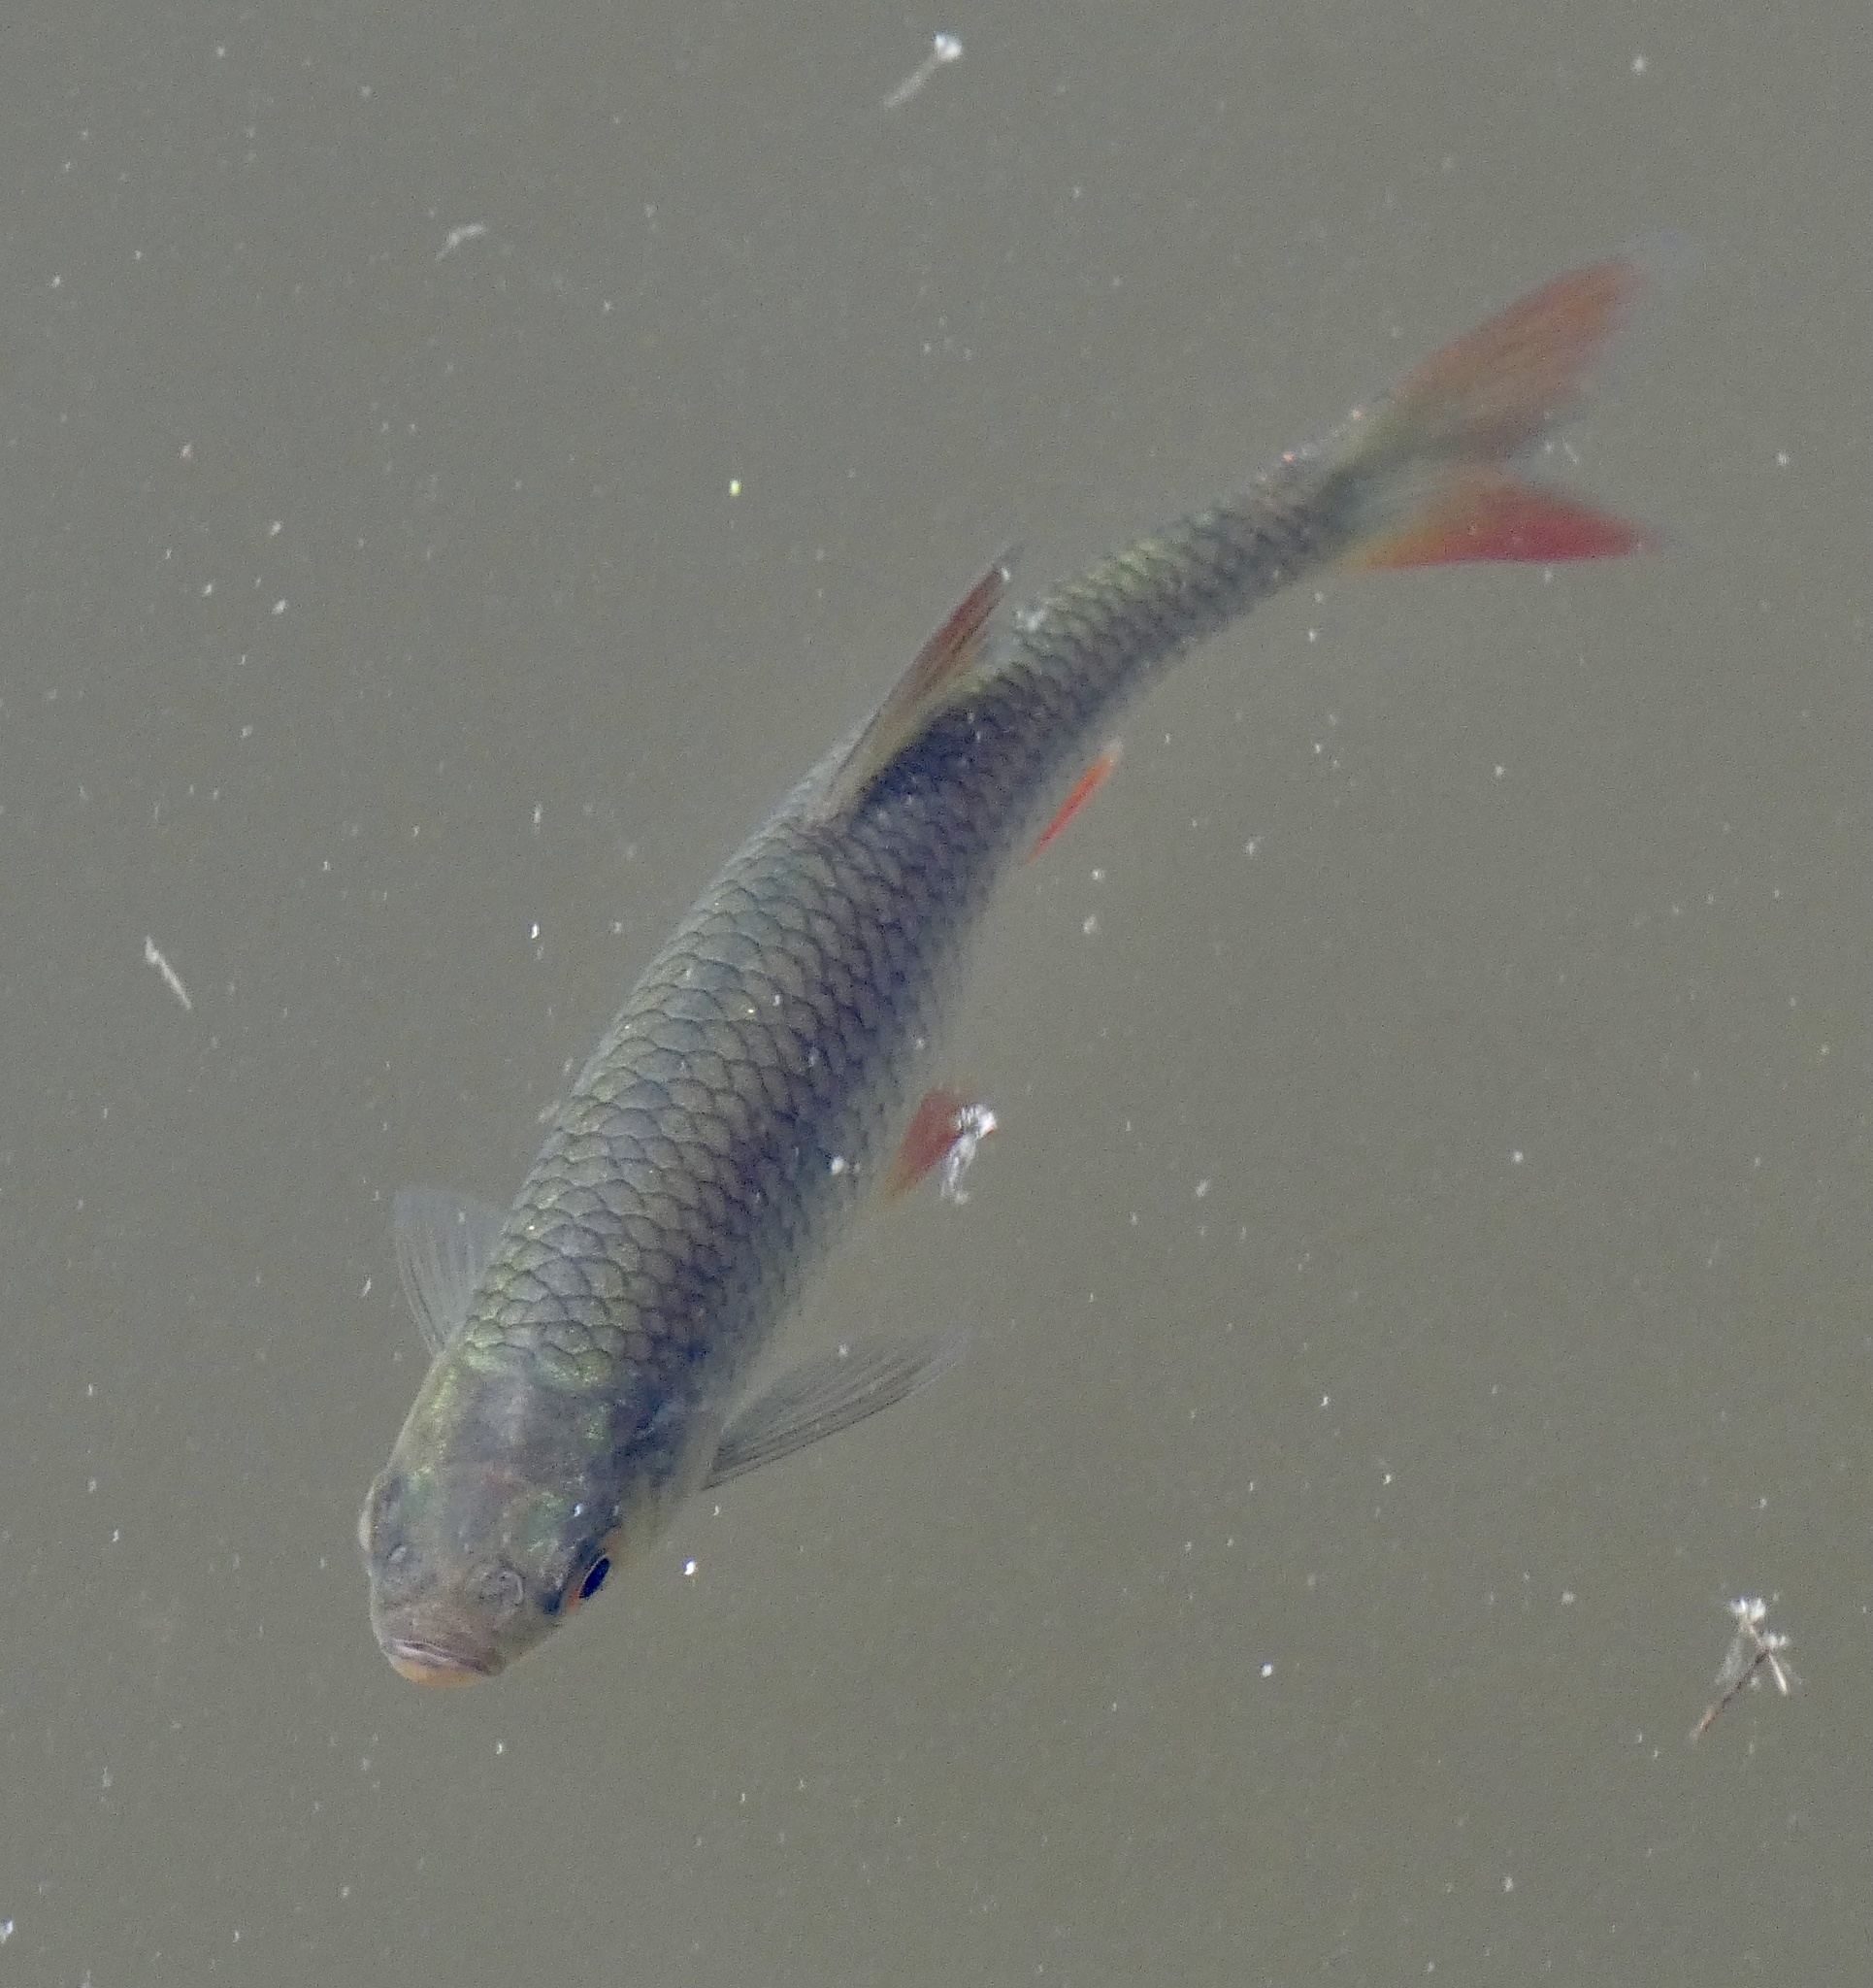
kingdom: Animalia
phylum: Chordata
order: Cypriniformes
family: Cyprinidae
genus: Squalius
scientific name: Squalius cephalus
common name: Chub
